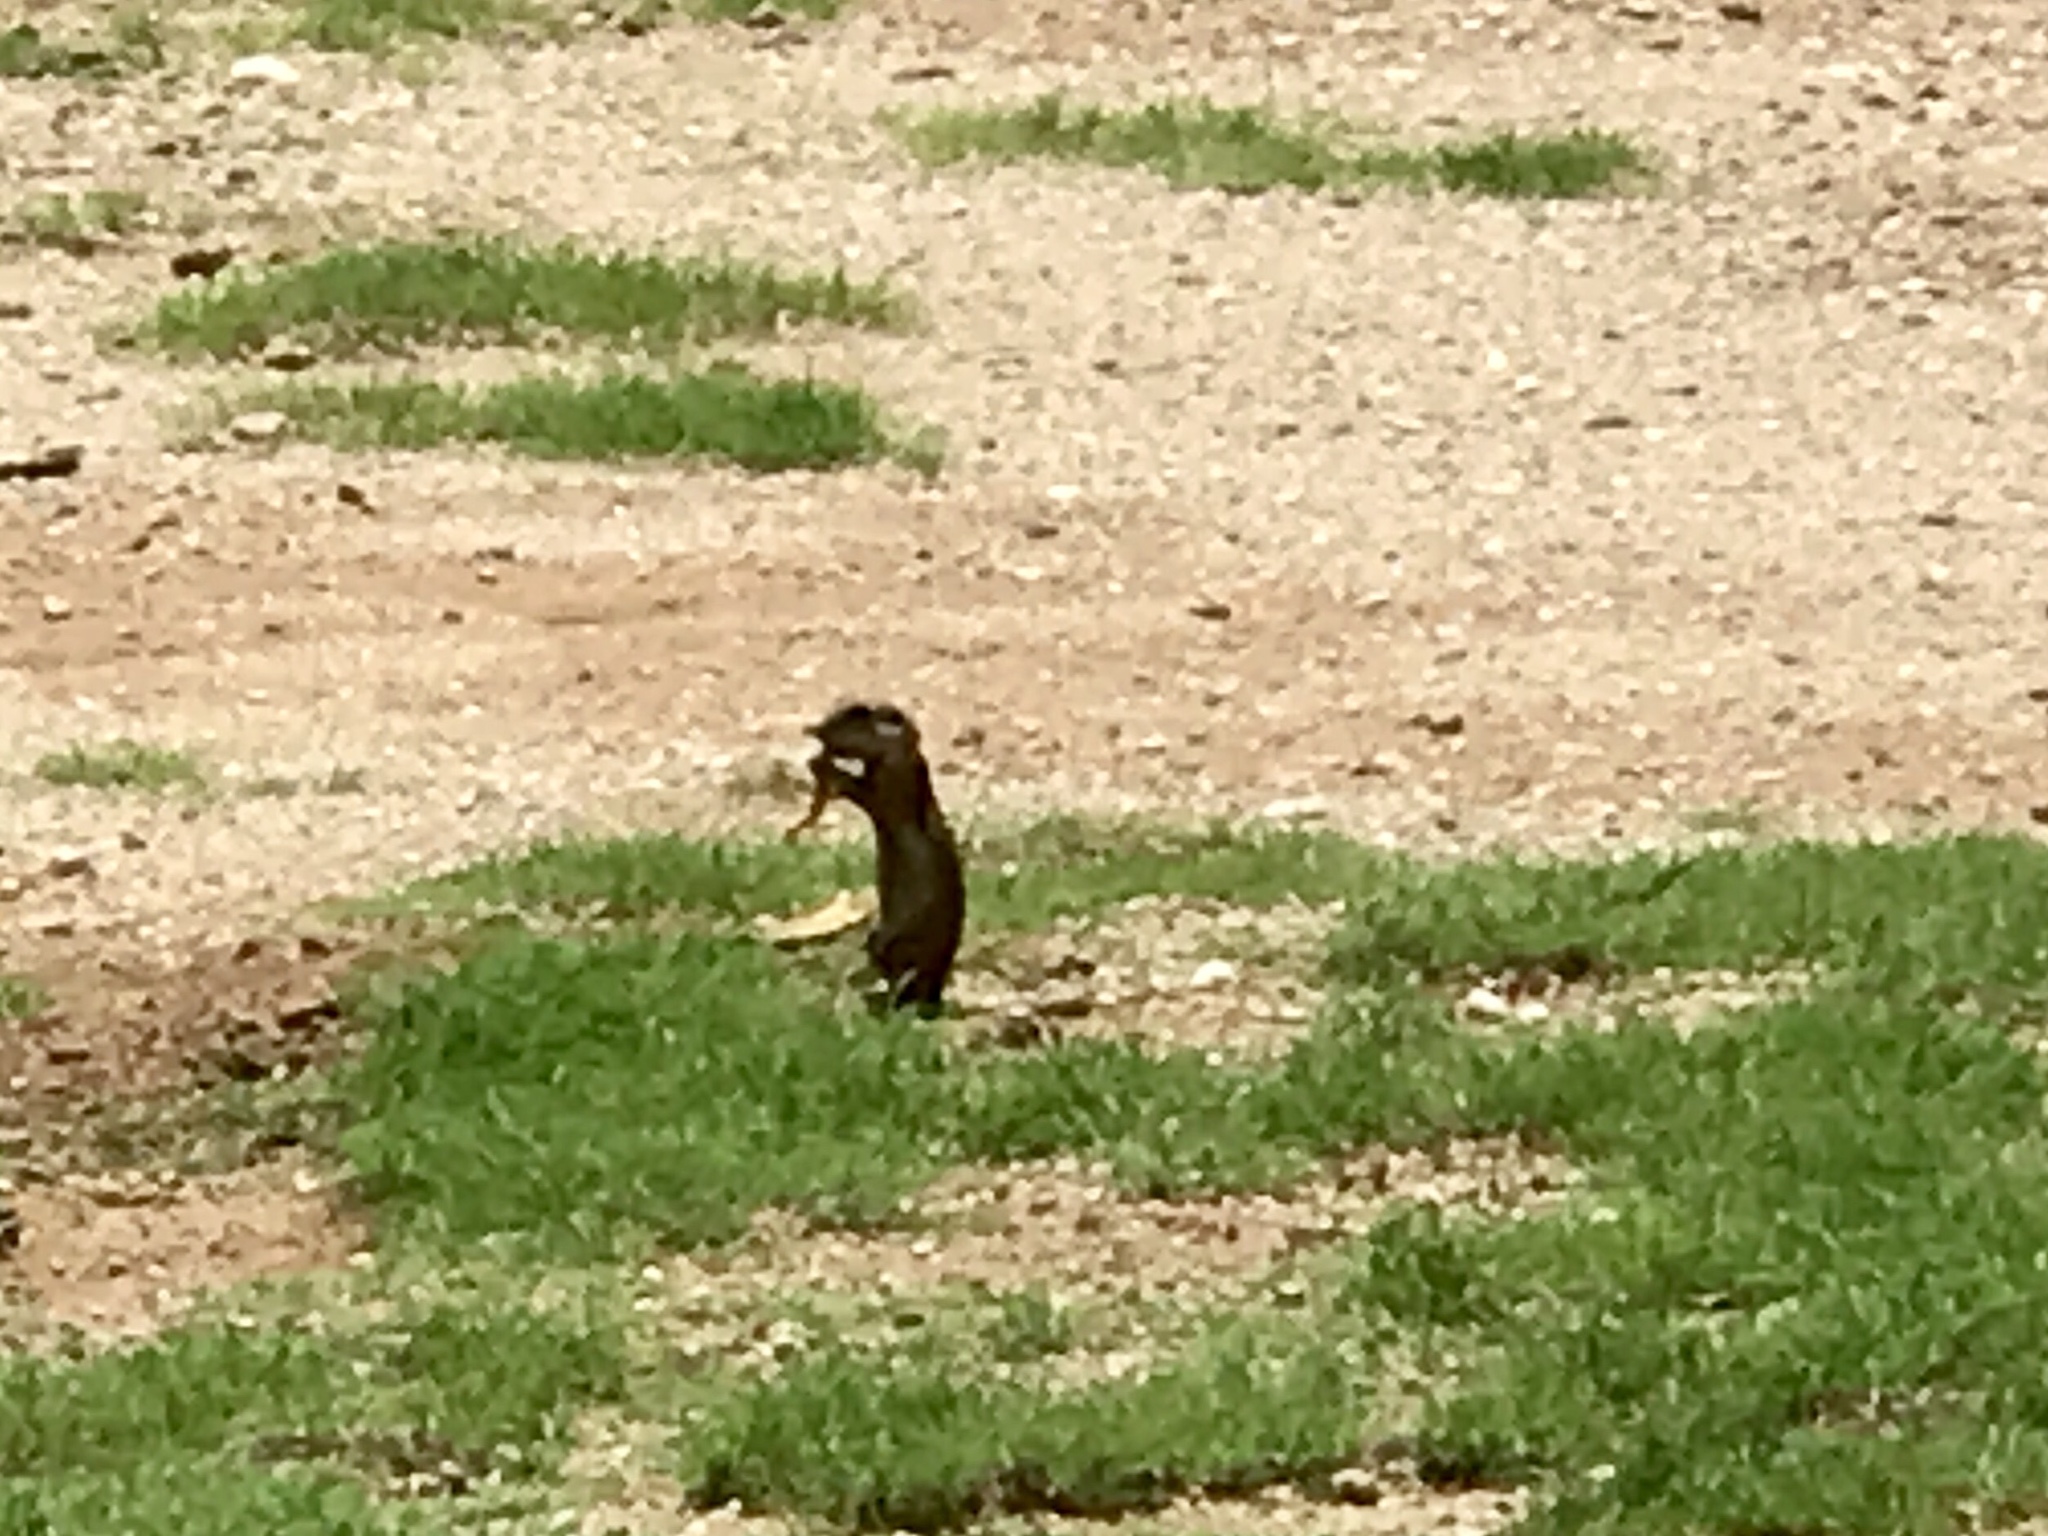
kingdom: Animalia
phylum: Chordata
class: Mammalia
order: Rodentia
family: Sciuridae
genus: Xerospermophilus
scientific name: Xerospermophilus tereticaudus
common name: Round-tailed ground squirrel
